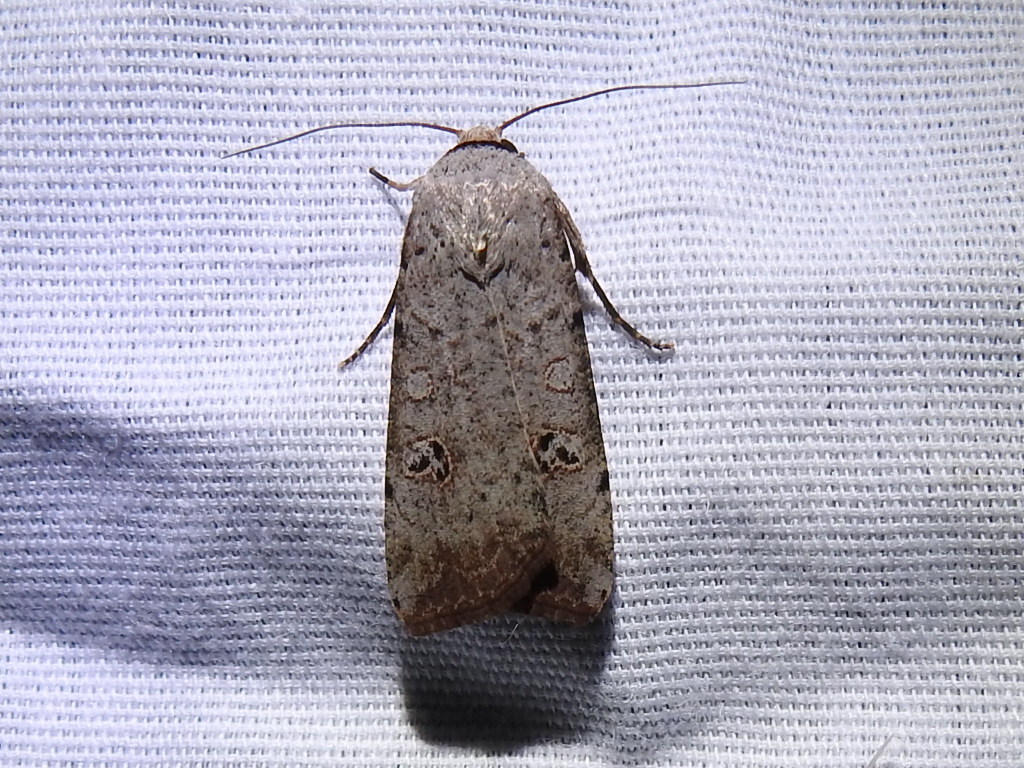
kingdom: Animalia
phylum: Arthropoda
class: Insecta
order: Lepidoptera
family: Noctuidae
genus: Anicla
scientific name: Anicla infecta
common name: Green cutworm
